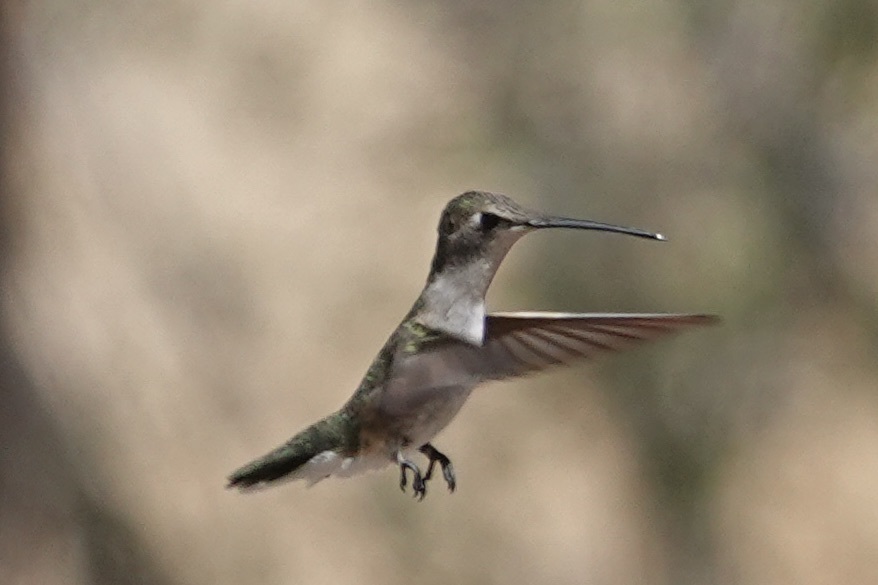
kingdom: Animalia
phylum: Chordata
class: Aves
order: Apodiformes
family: Trochilidae
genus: Archilochus
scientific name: Archilochus alexandri
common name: Black-chinned hummingbird
